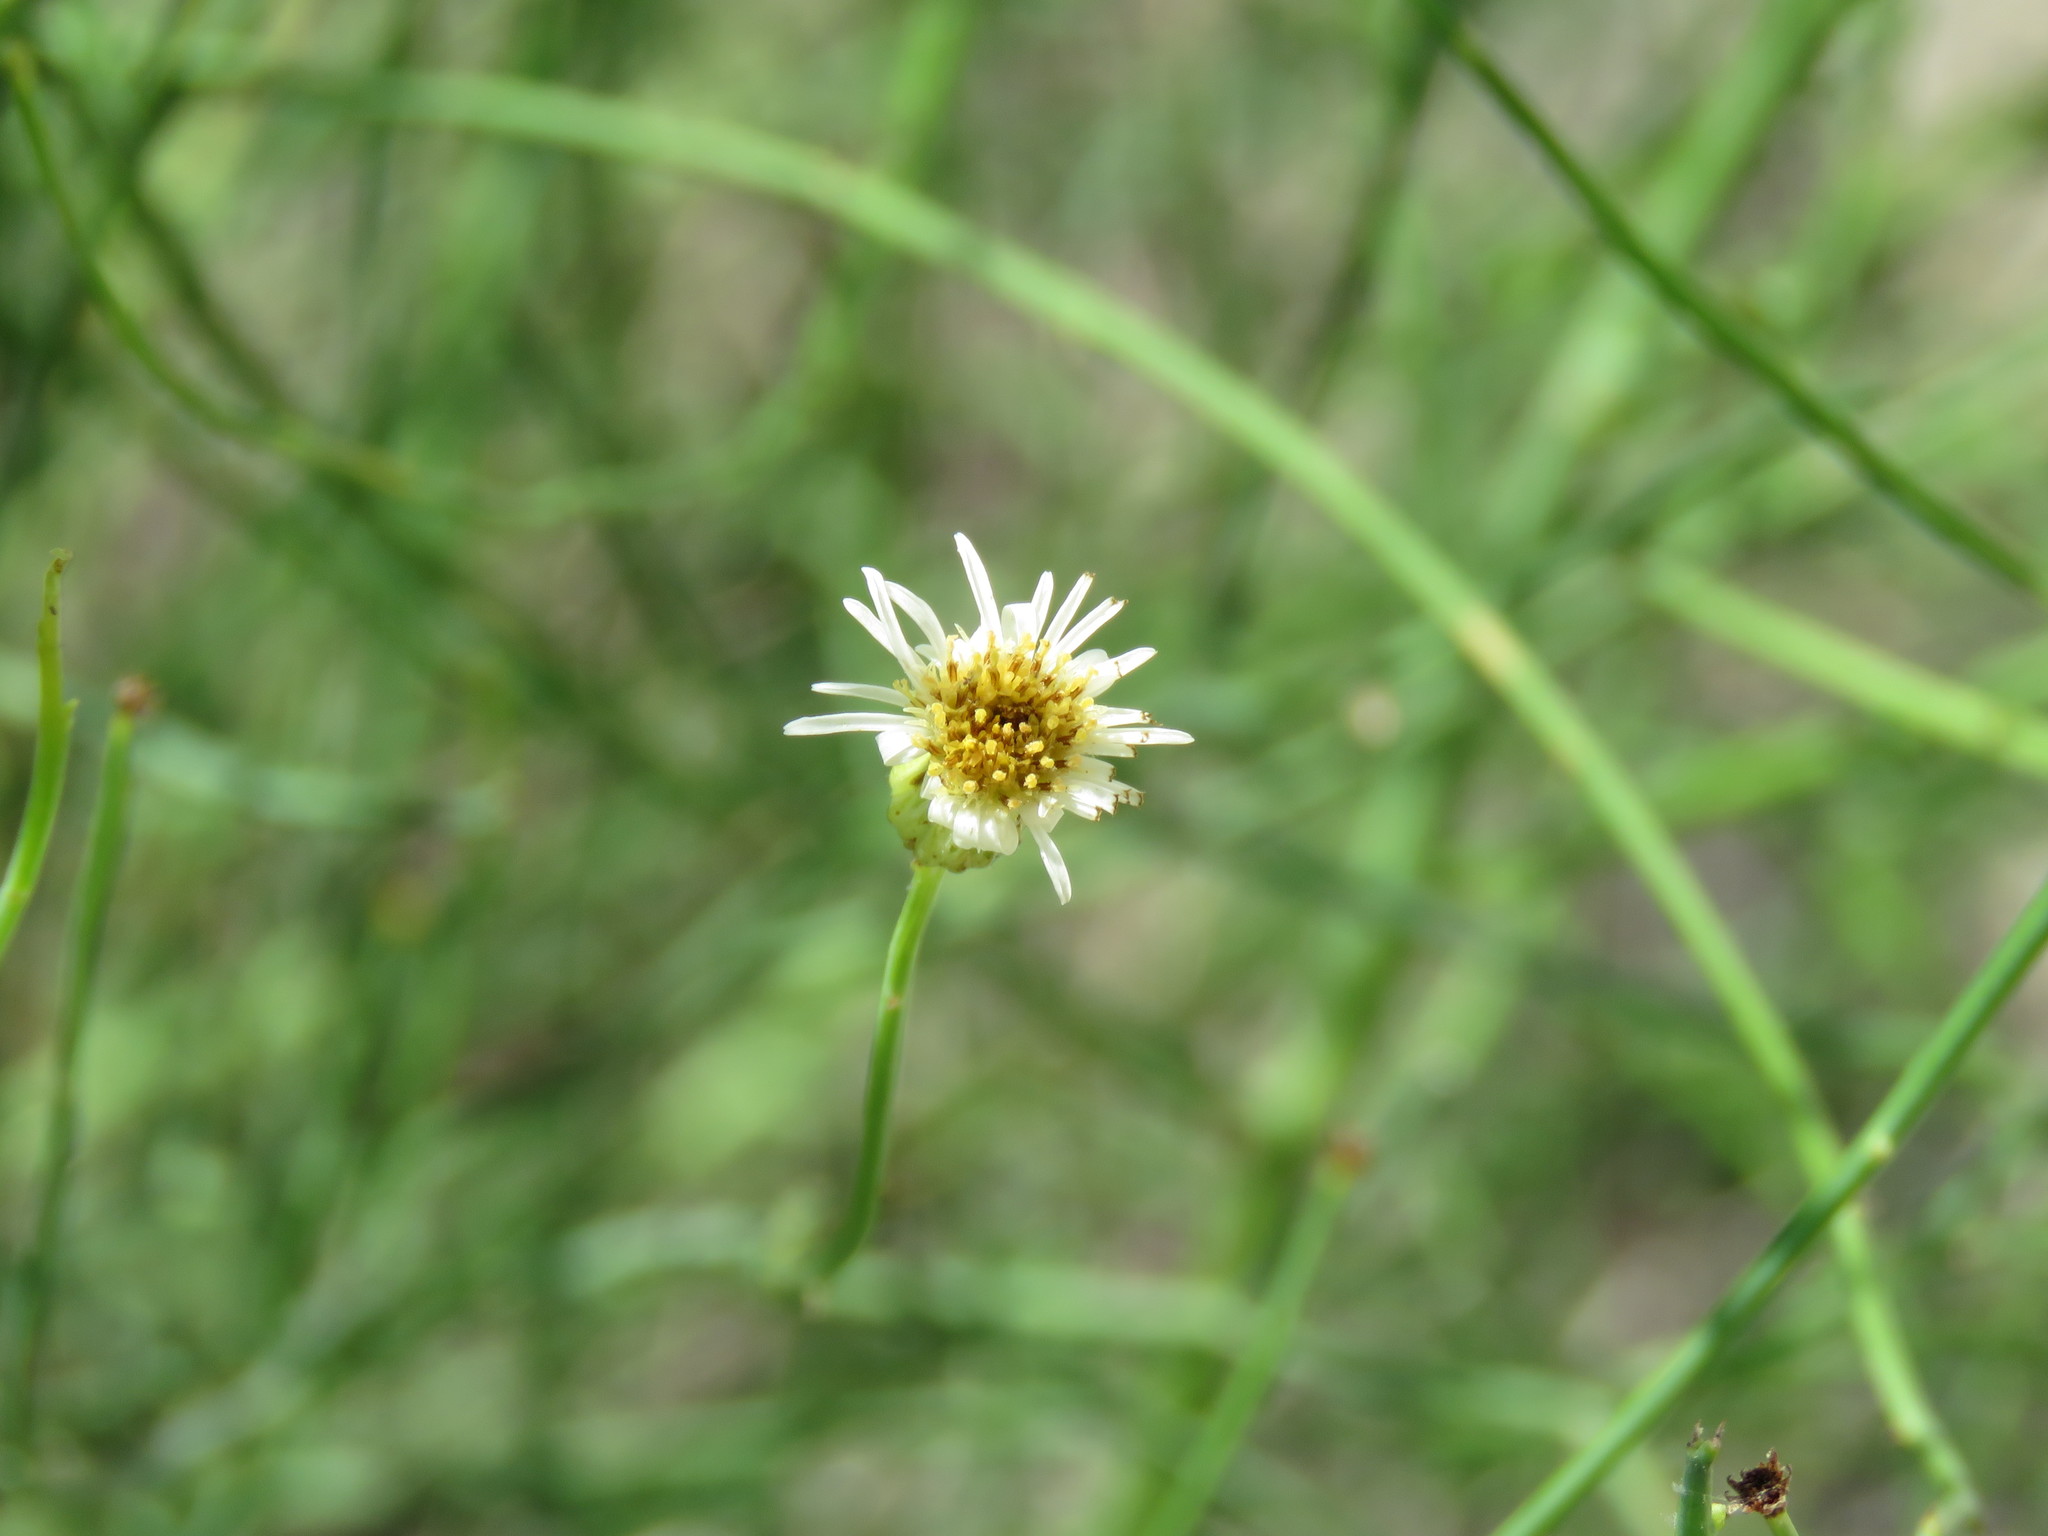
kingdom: Plantae
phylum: Tracheophyta
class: Magnoliopsida
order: Asterales
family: Asteraceae
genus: Chloracantha
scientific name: Chloracantha spinosa
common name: Mexican devilweed
